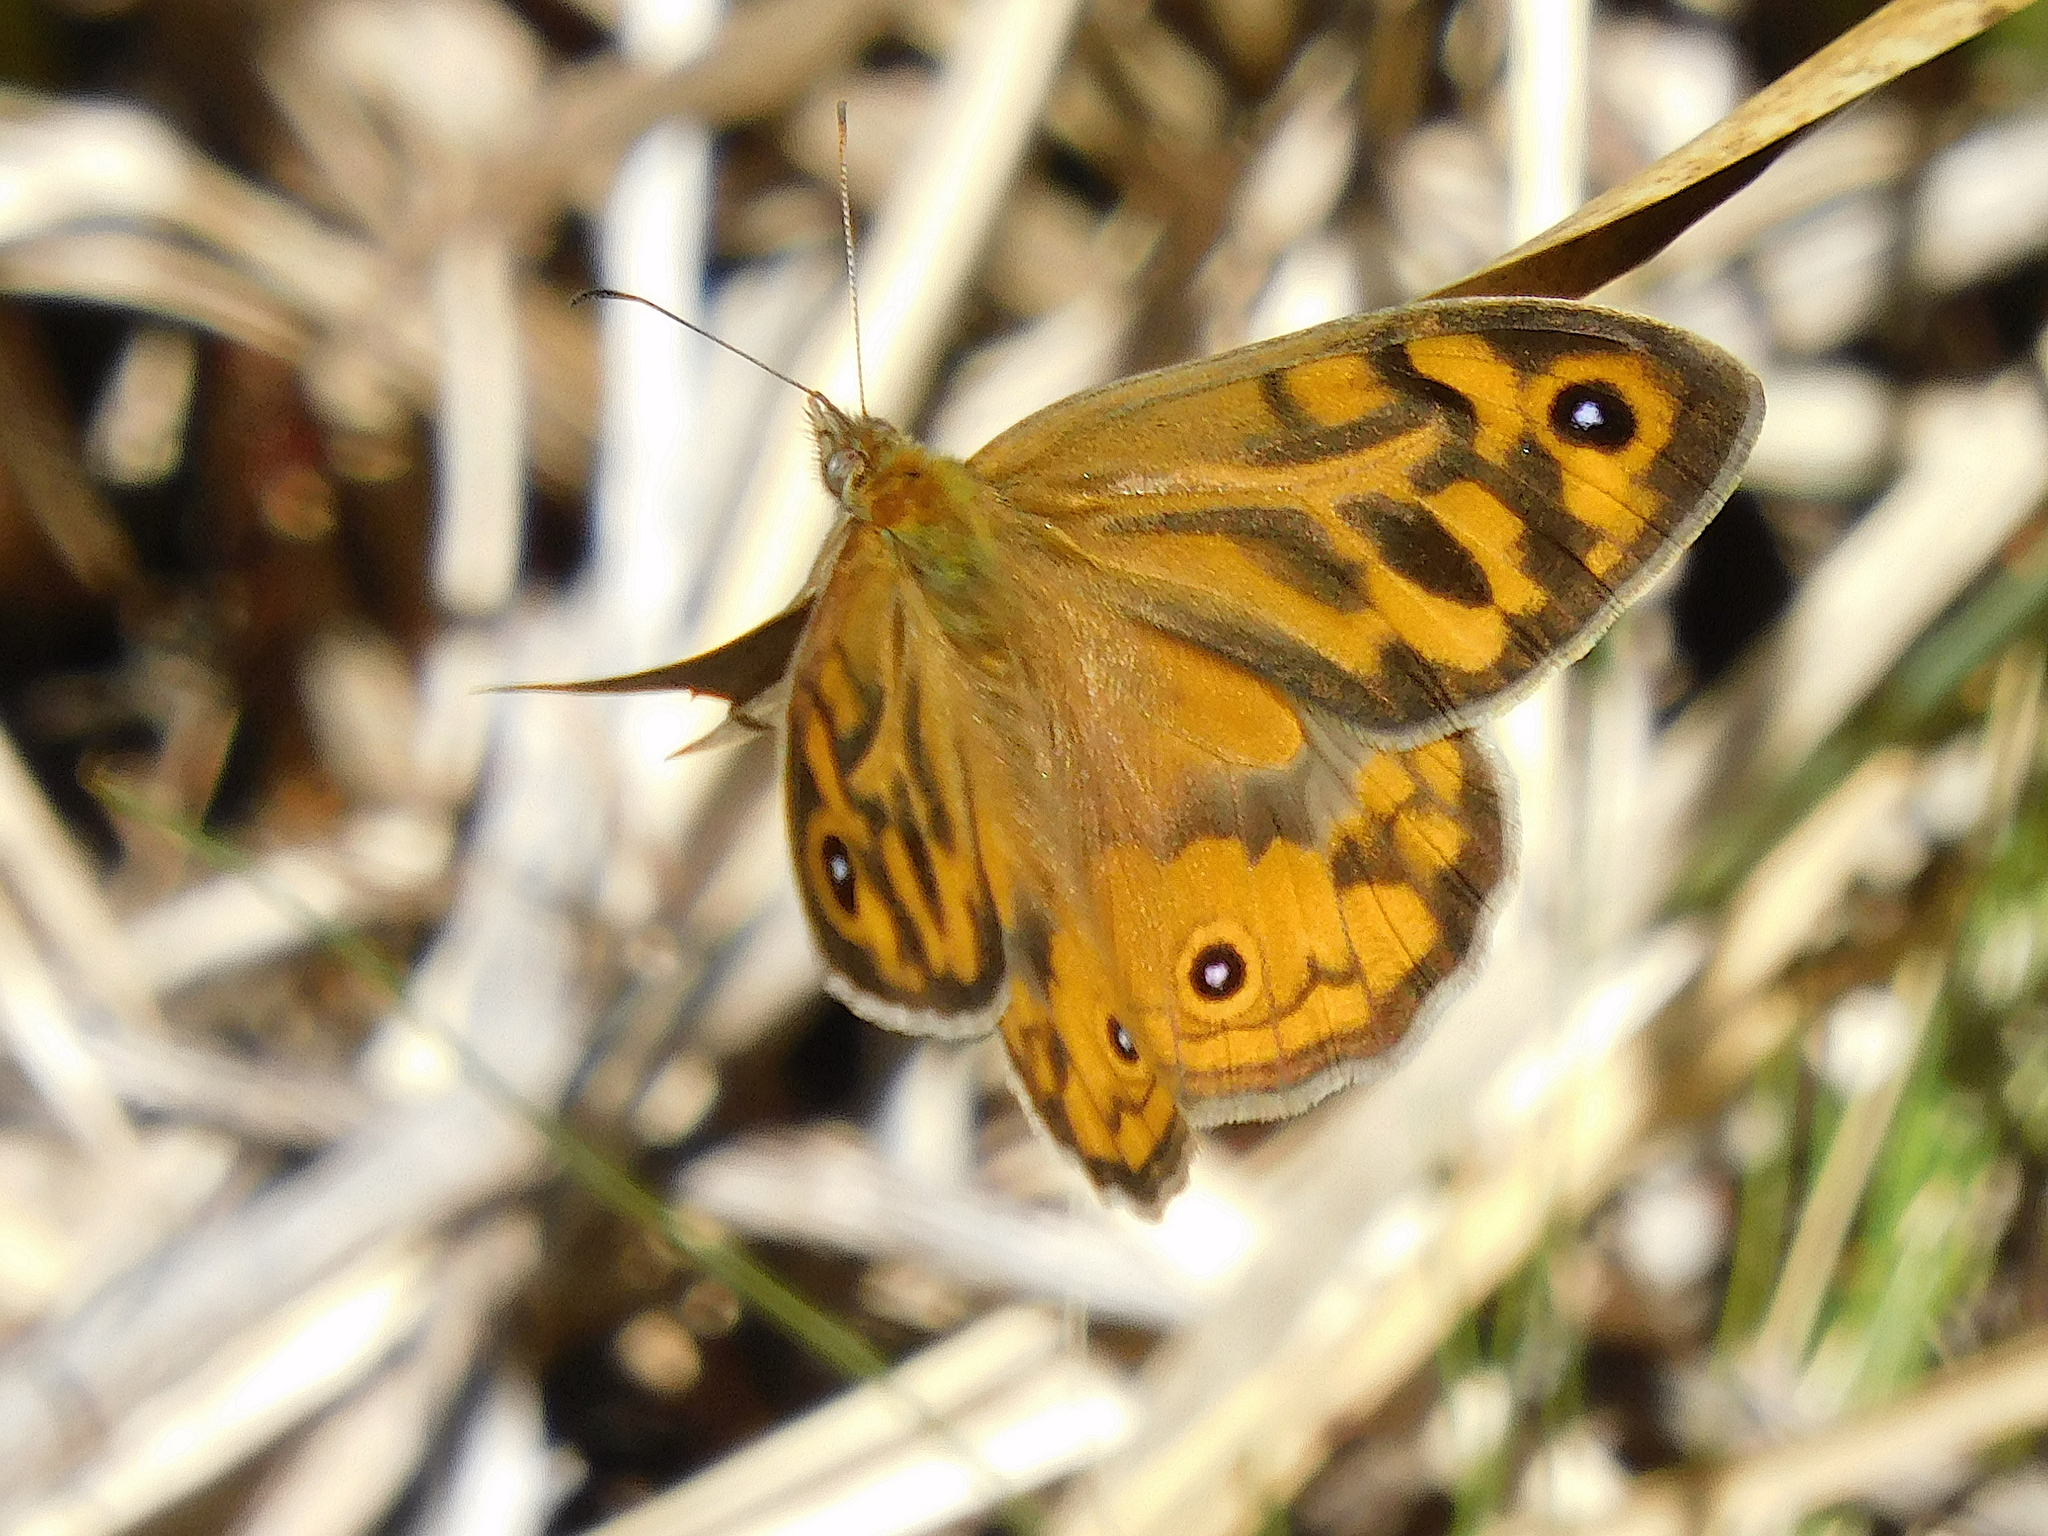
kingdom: Animalia
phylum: Arthropoda
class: Insecta
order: Lepidoptera
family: Nymphalidae
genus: Heteronympha
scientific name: Heteronympha merope
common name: Common brown
